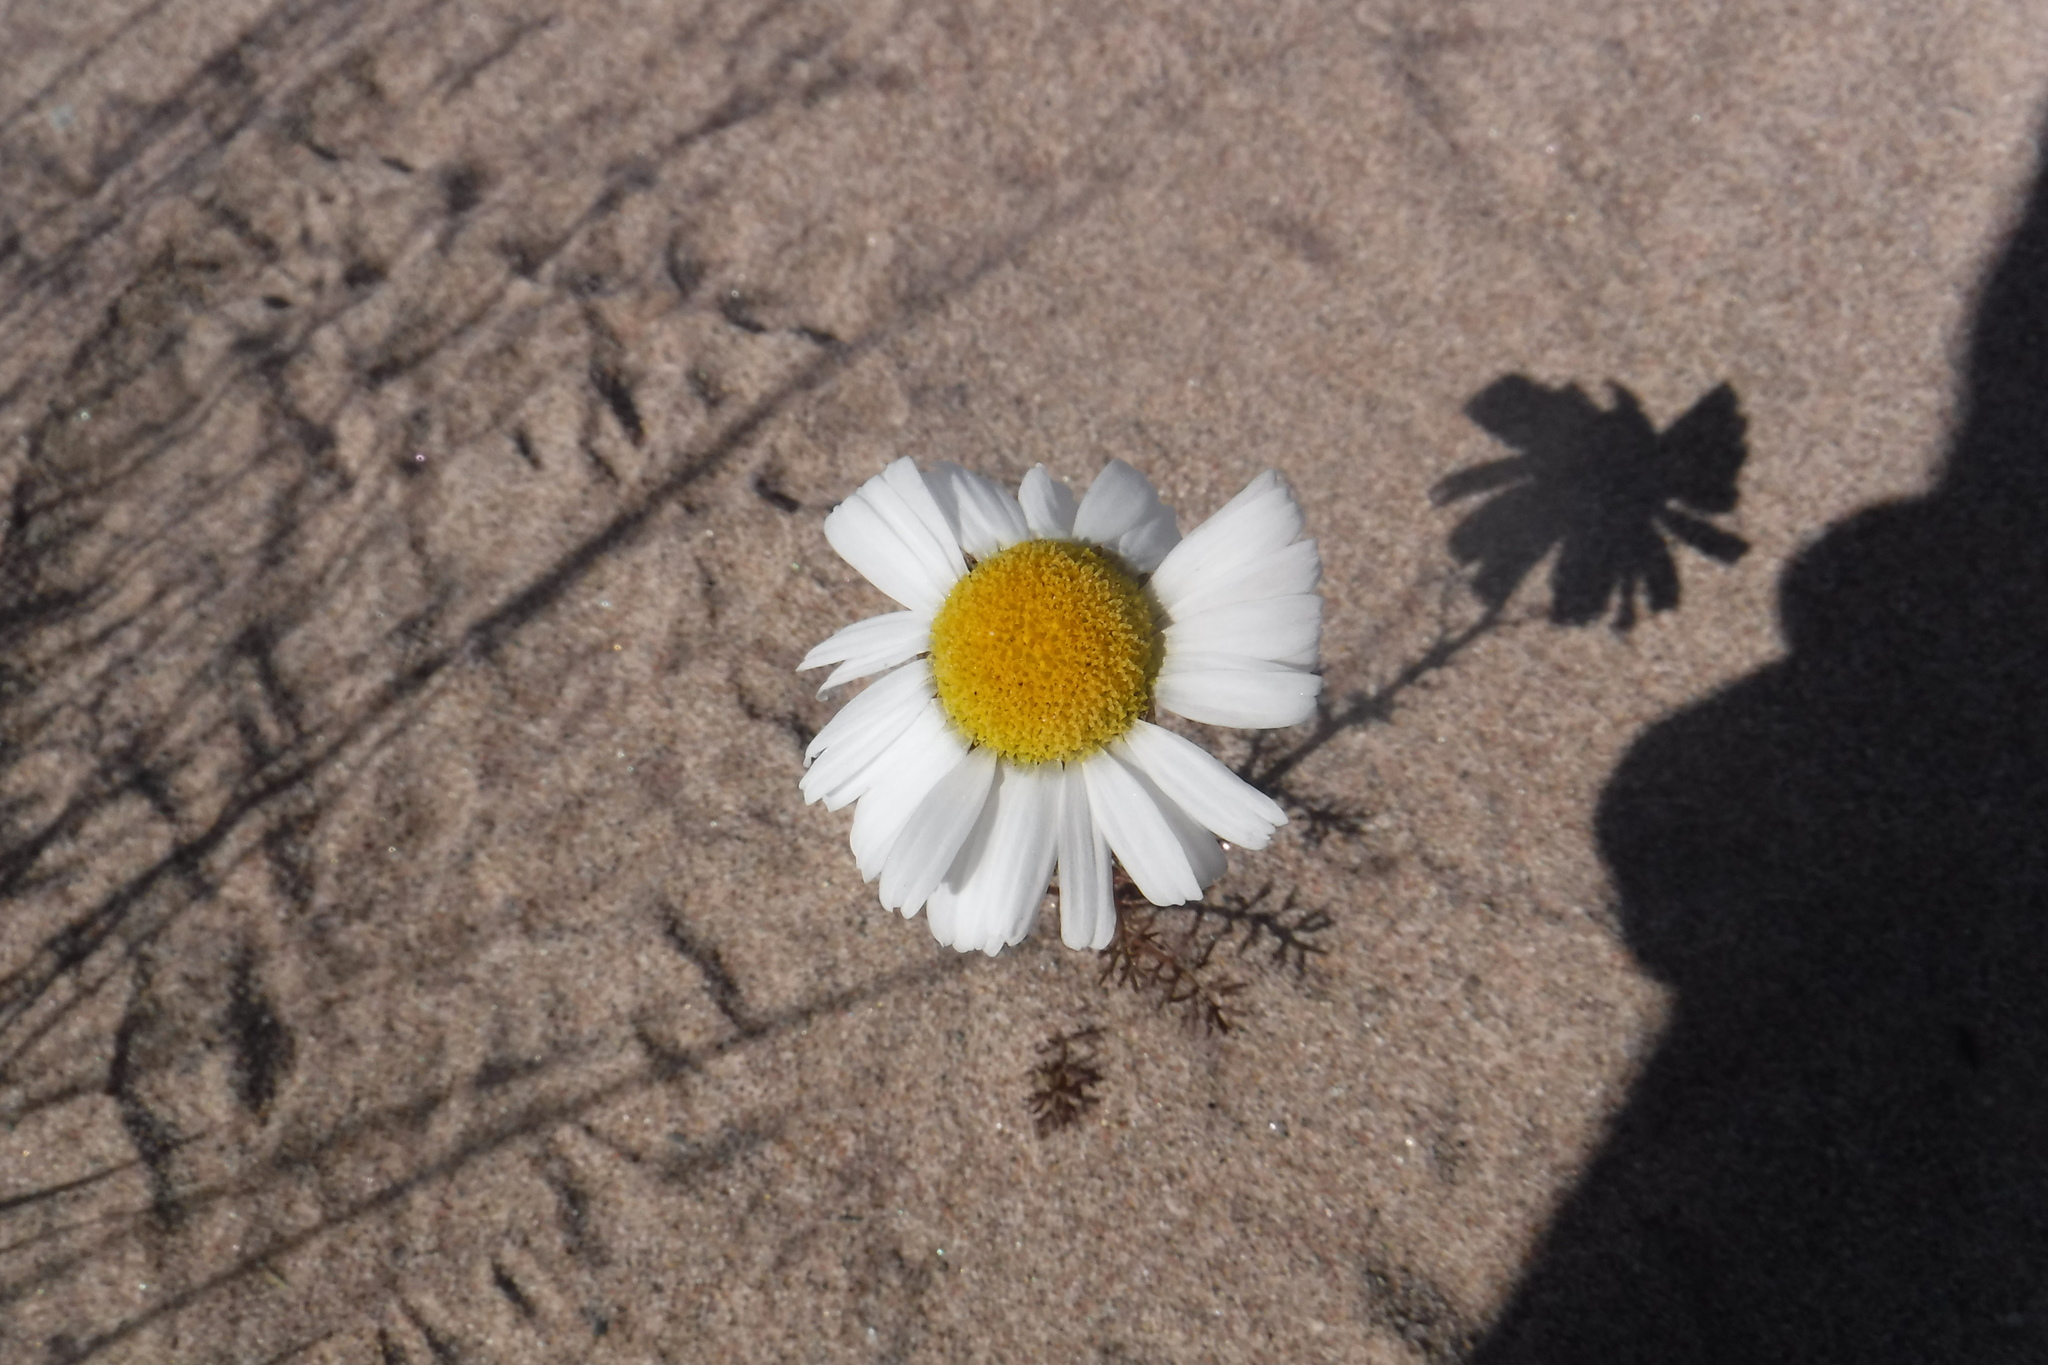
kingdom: Plantae
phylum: Tracheophyta
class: Magnoliopsida
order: Asterales
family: Asteraceae
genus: Tripleurospermum
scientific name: Tripleurospermum hookeri
